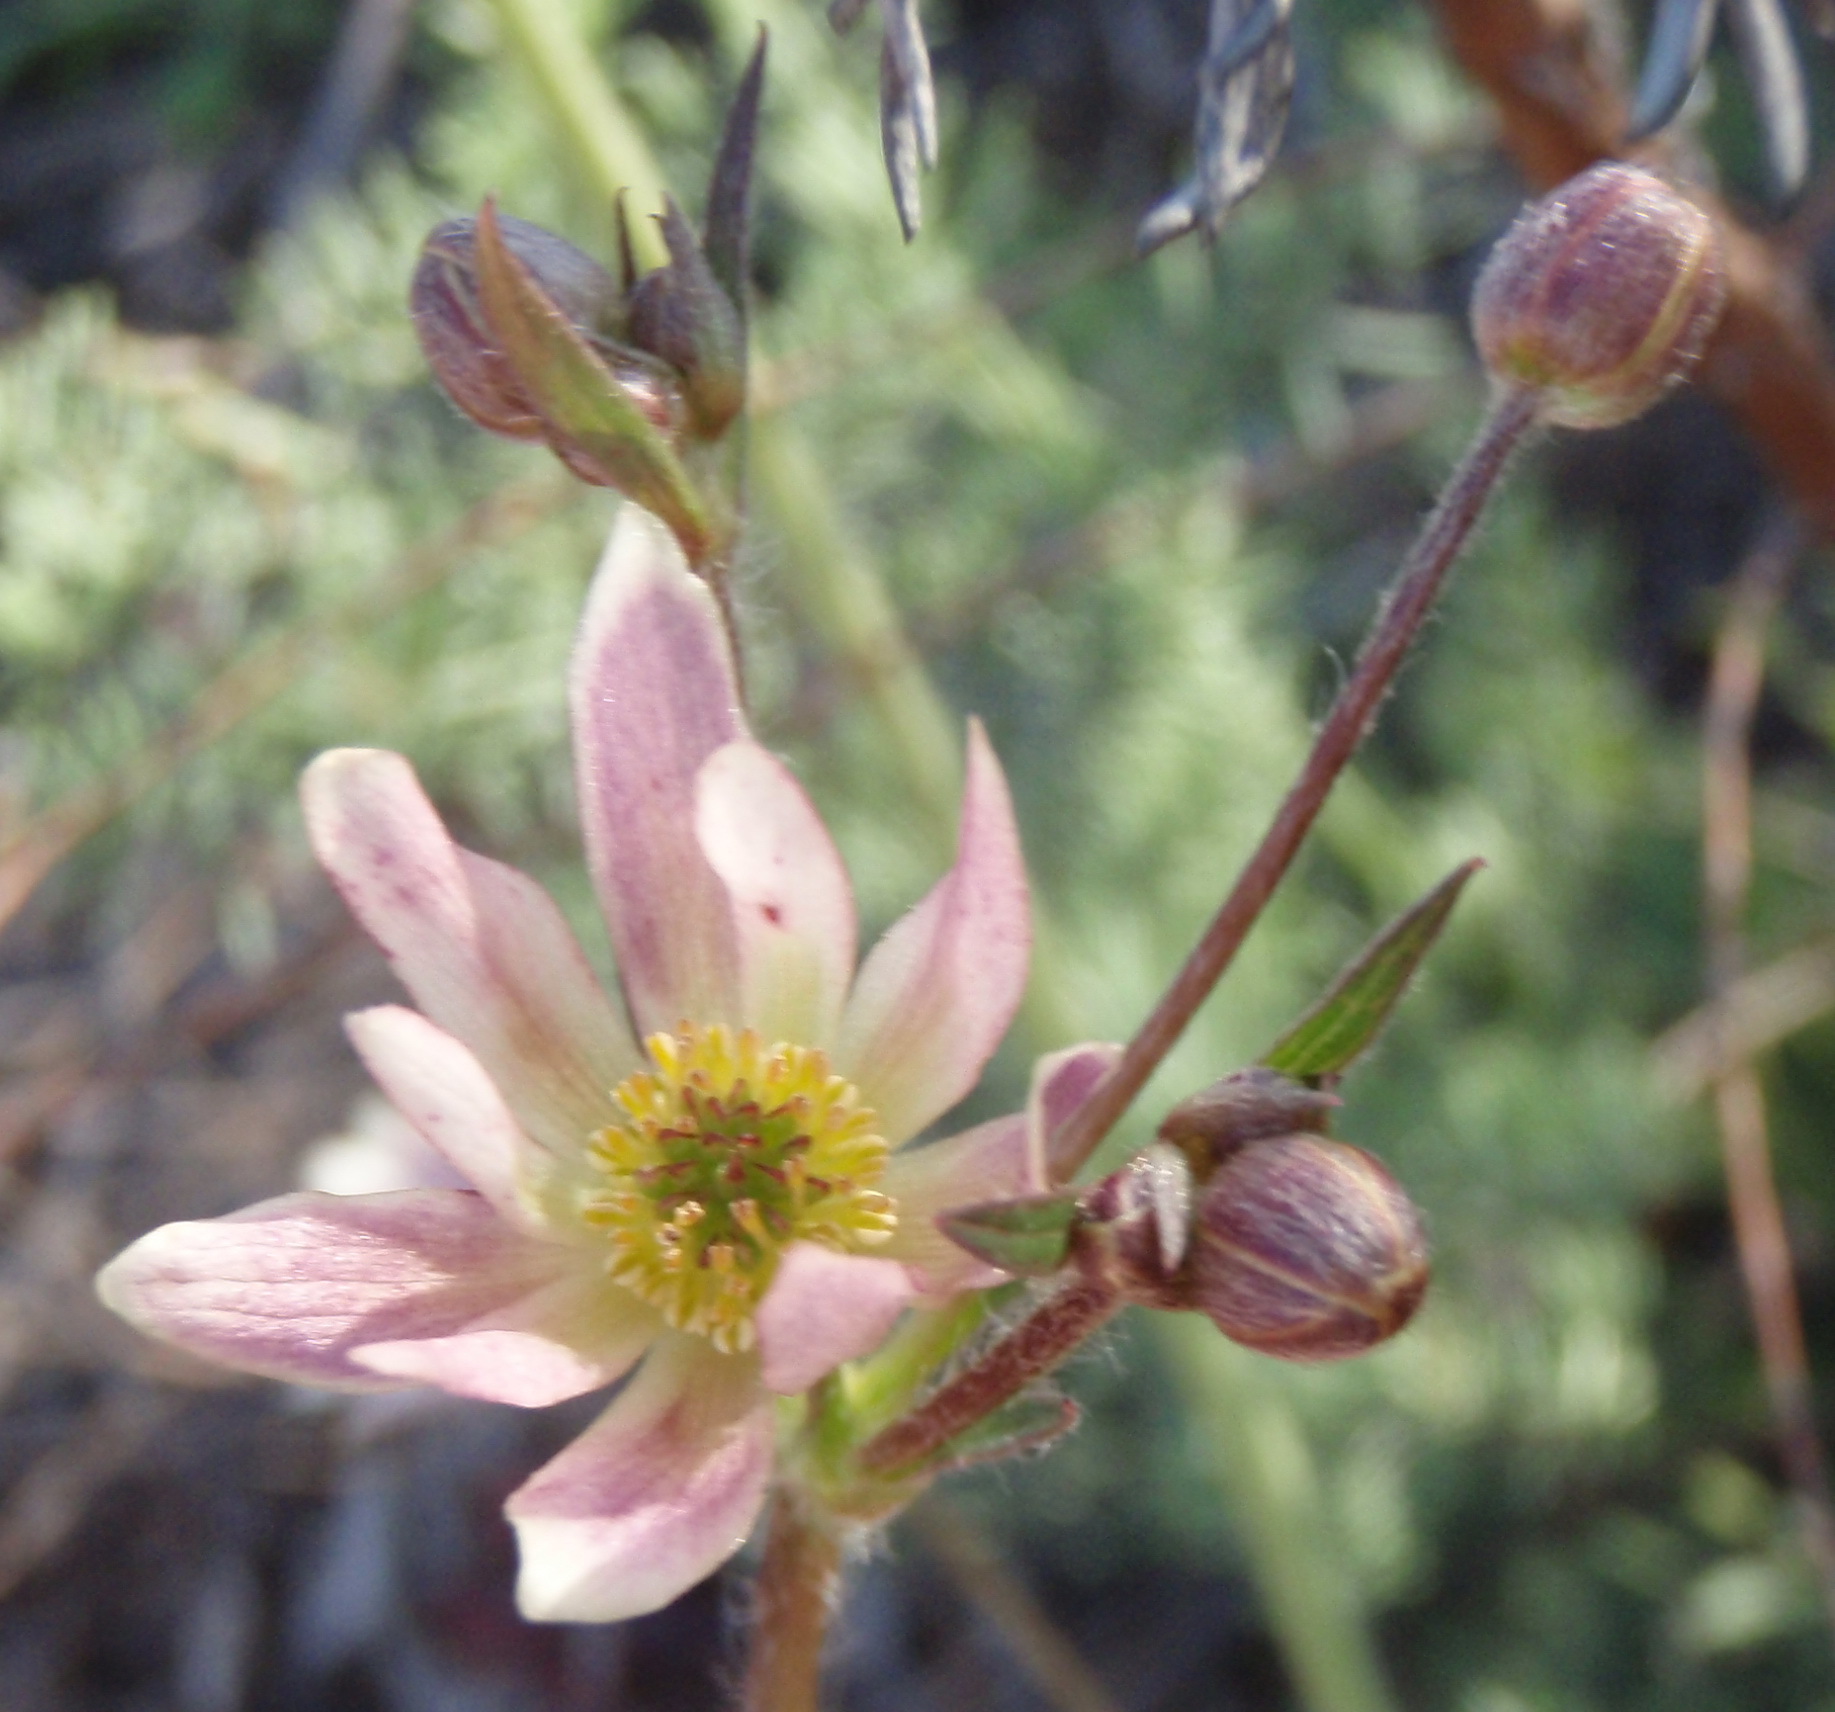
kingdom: Plantae
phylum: Tracheophyta
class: Magnoliopsida
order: Ranunculales
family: Ranunculaceae
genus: Knowltonia
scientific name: Knowltonia filia
